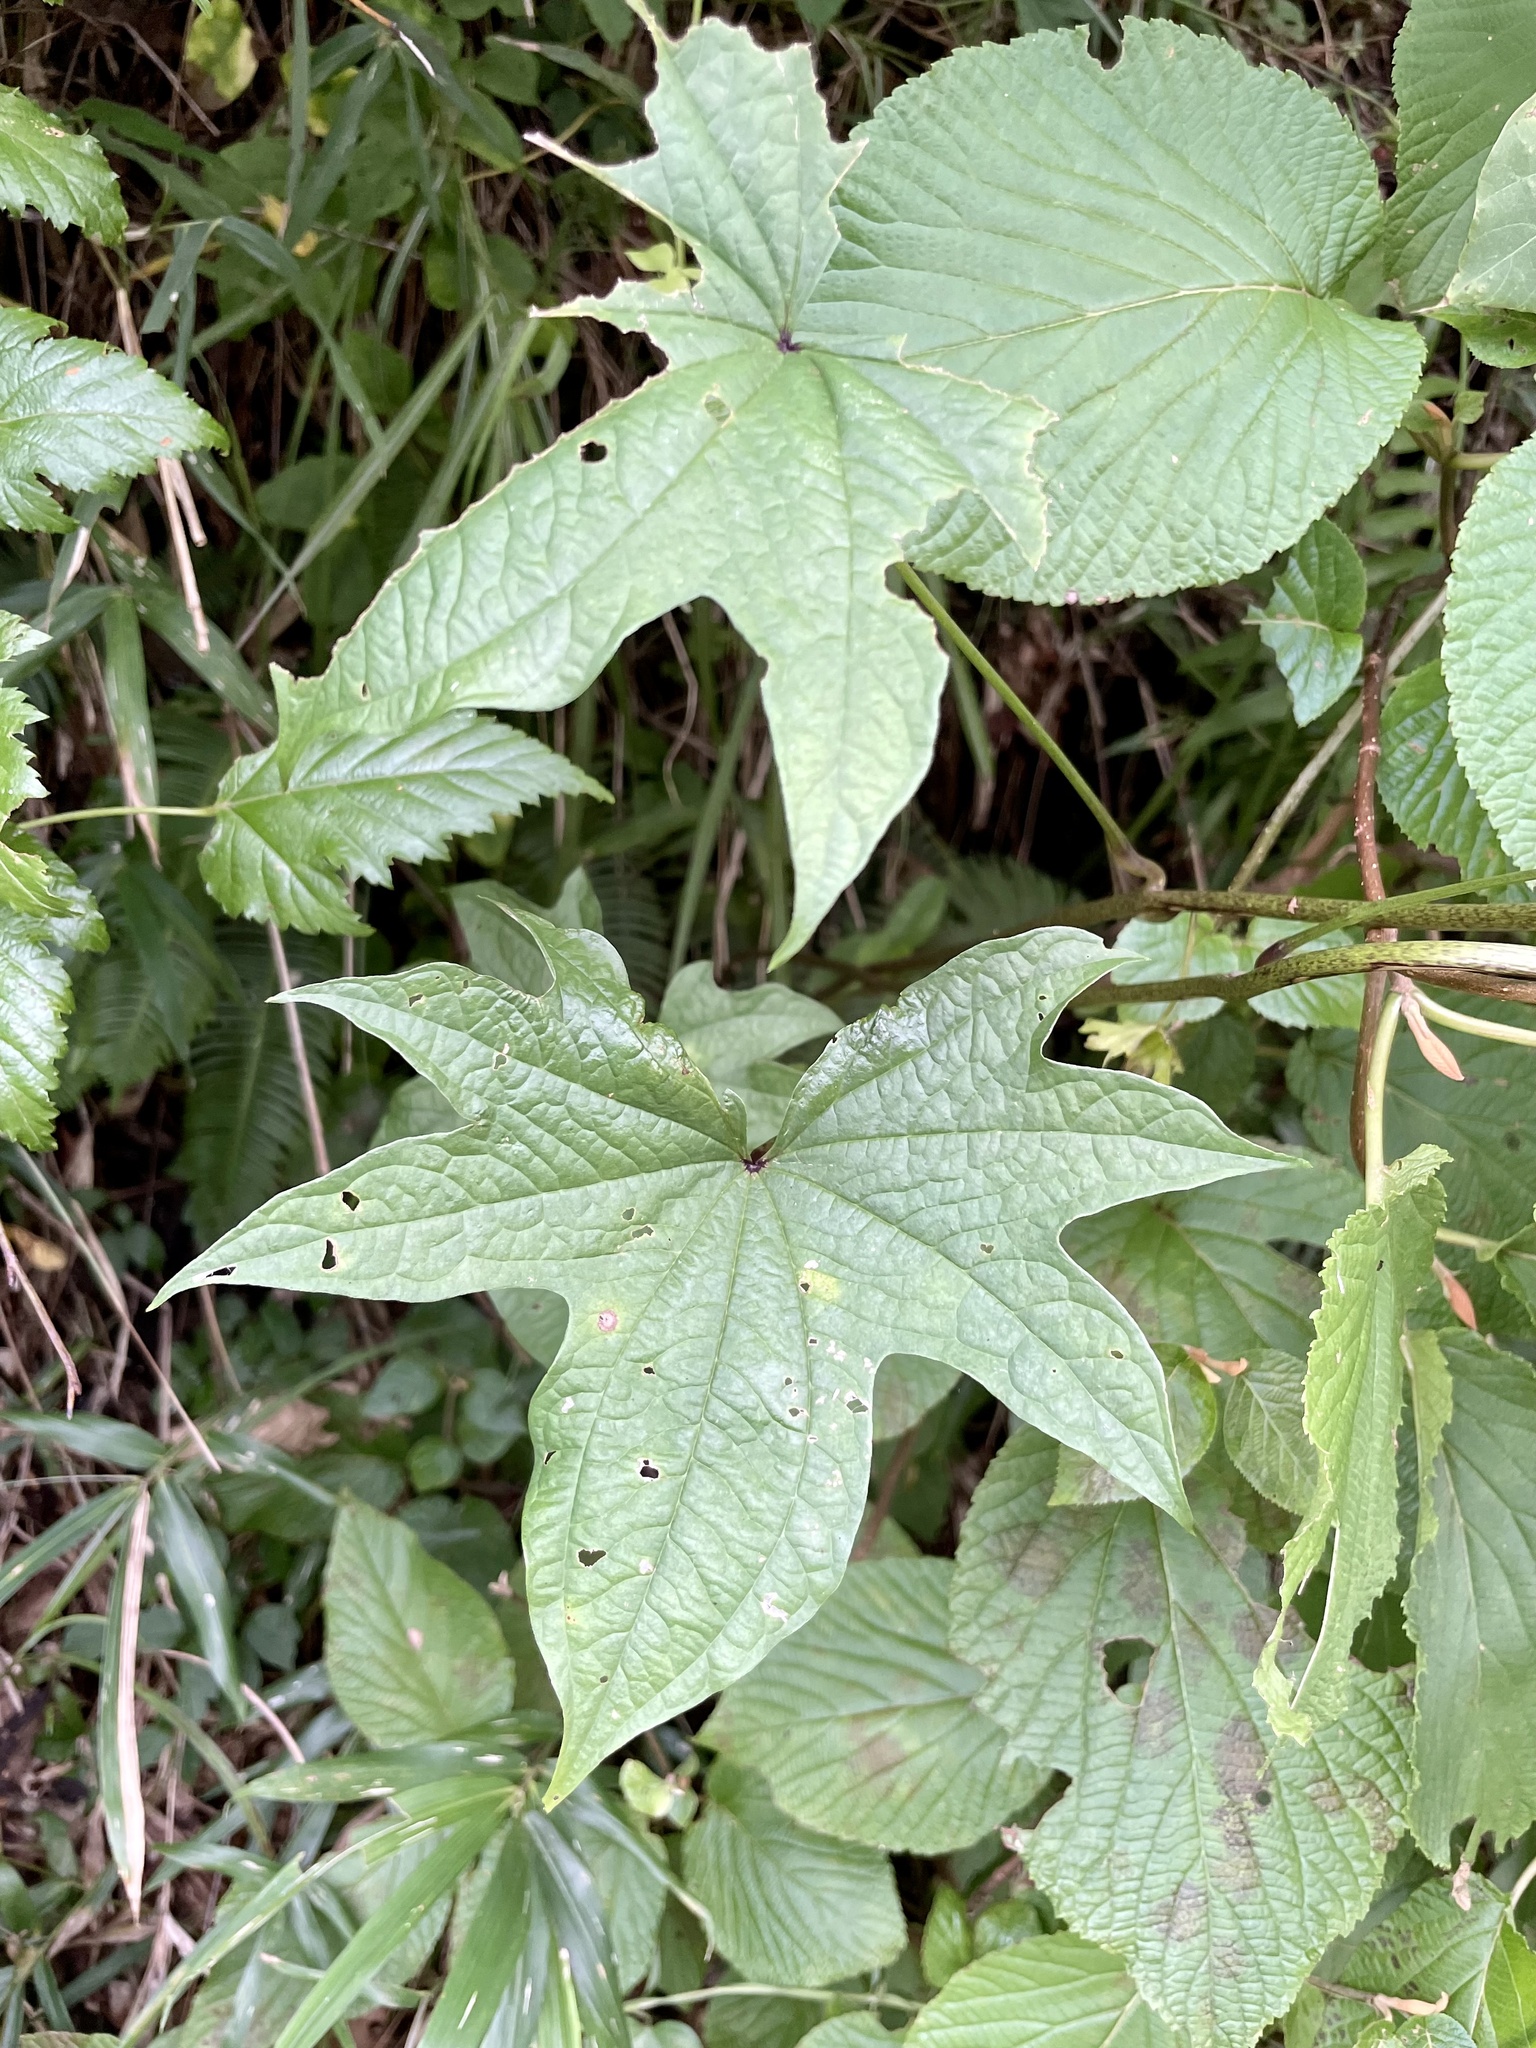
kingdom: Plantae
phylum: Tracheophyta
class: Liliopsida
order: Dioscoreales
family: Dioscoreaceae
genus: Dioscorea
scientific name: Dioscorea septemloba
